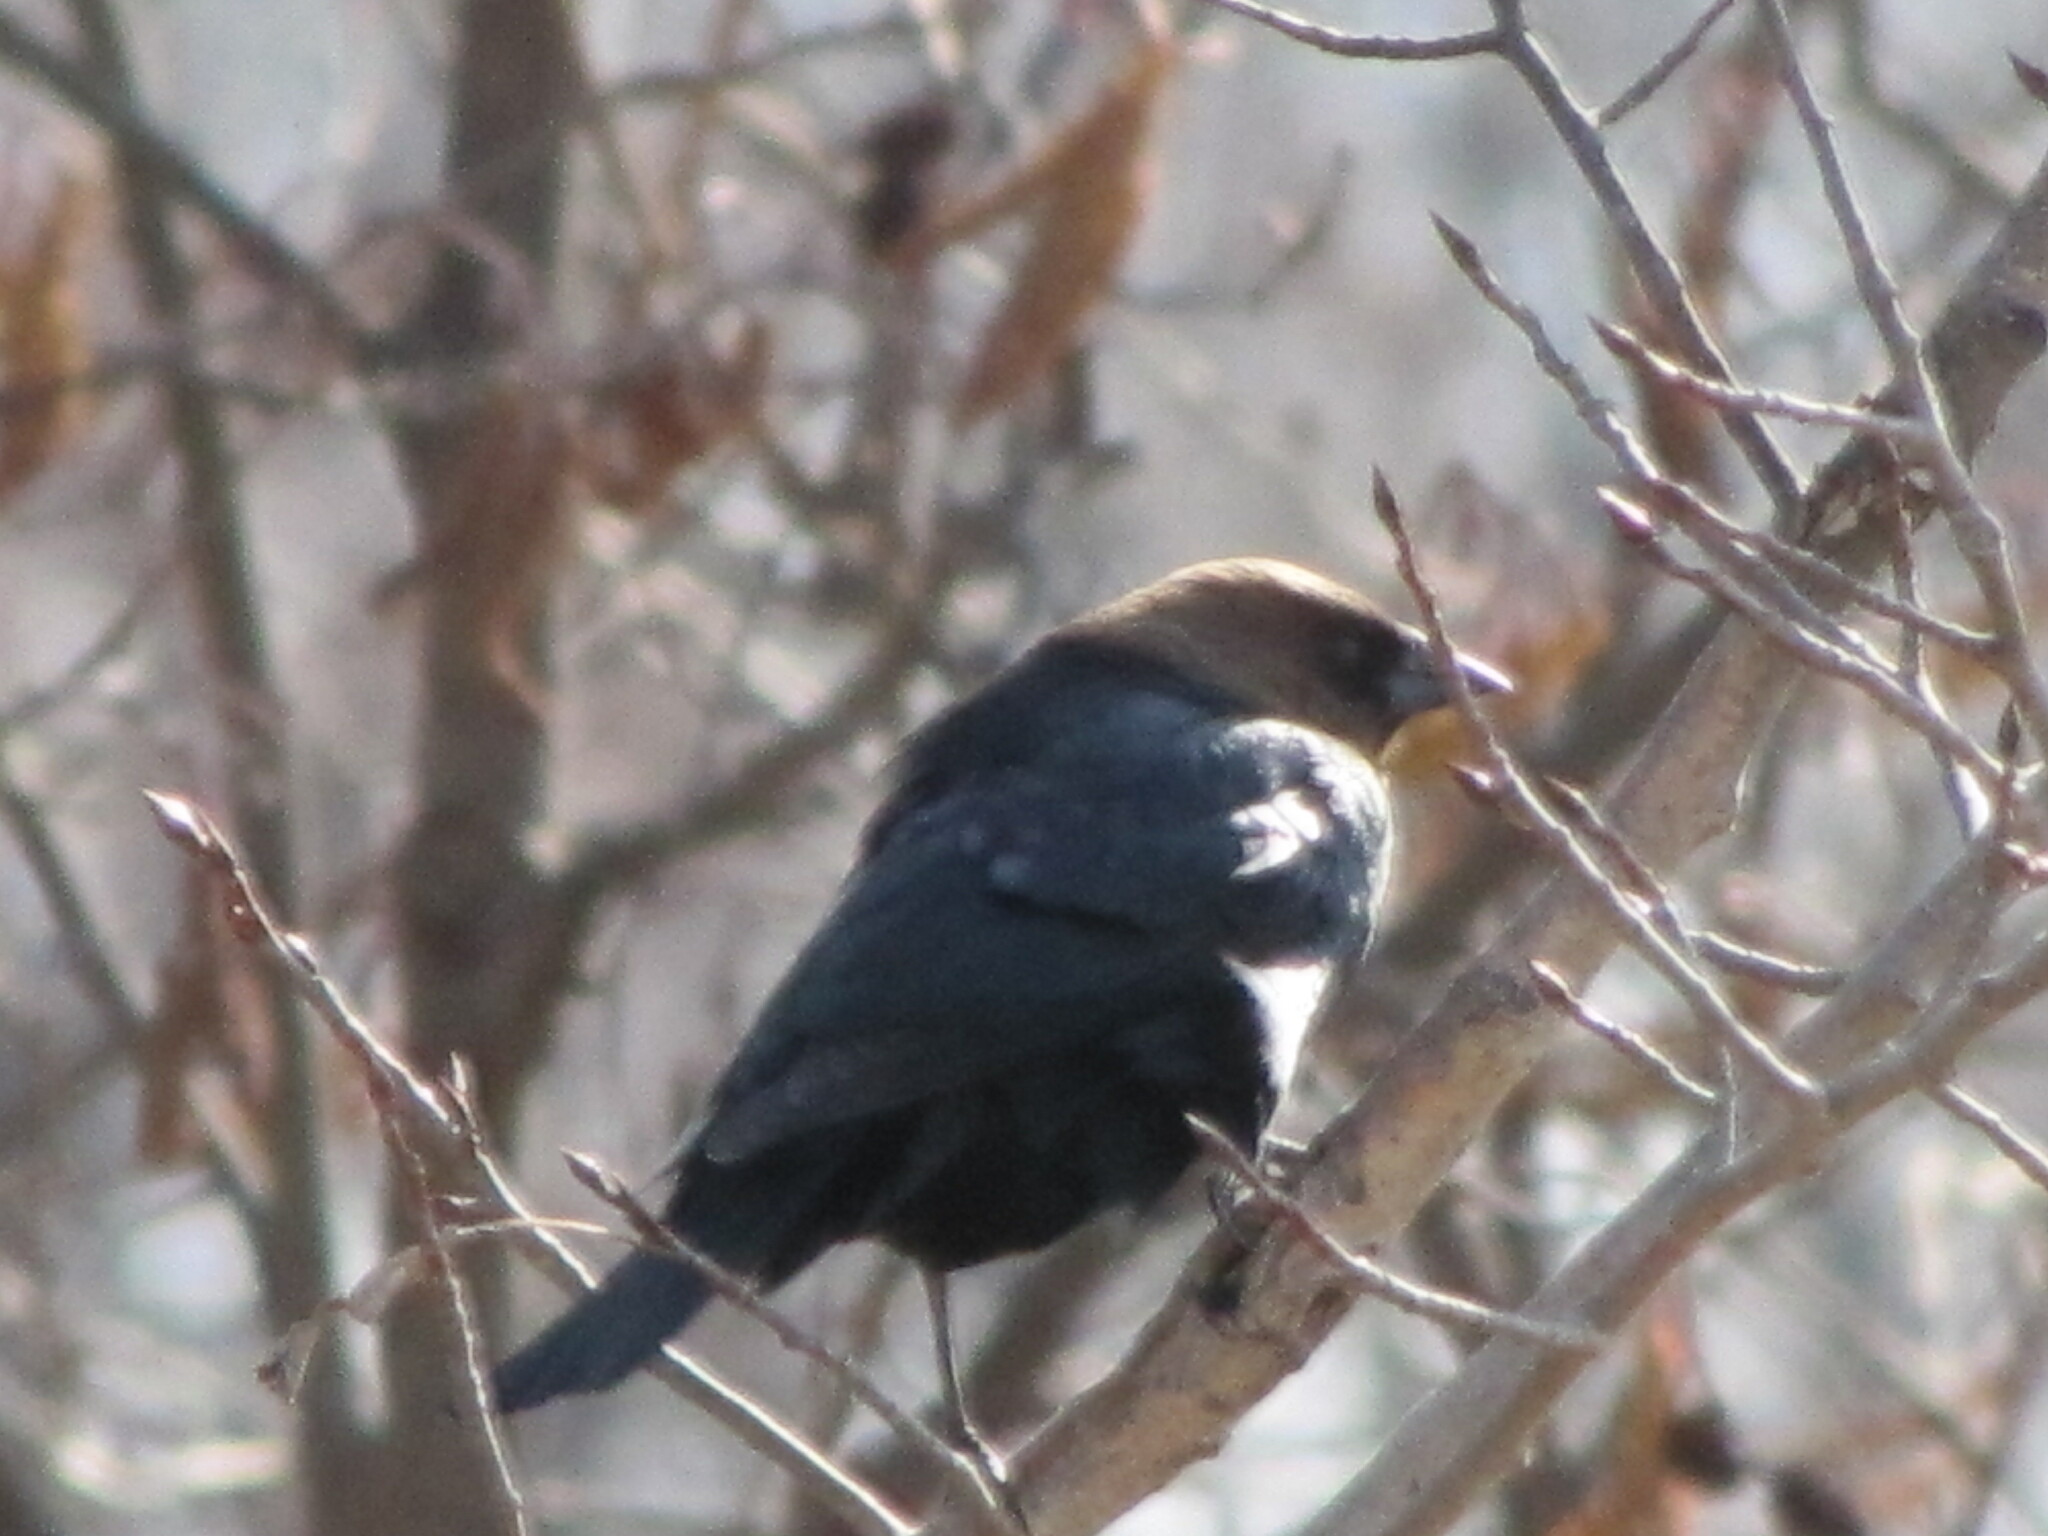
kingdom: Animalia
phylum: Chordata
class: Aves
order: Passeriformes
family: Icteridae
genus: Molothrus
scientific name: Molothrus ater
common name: Brown-headed cowbird
